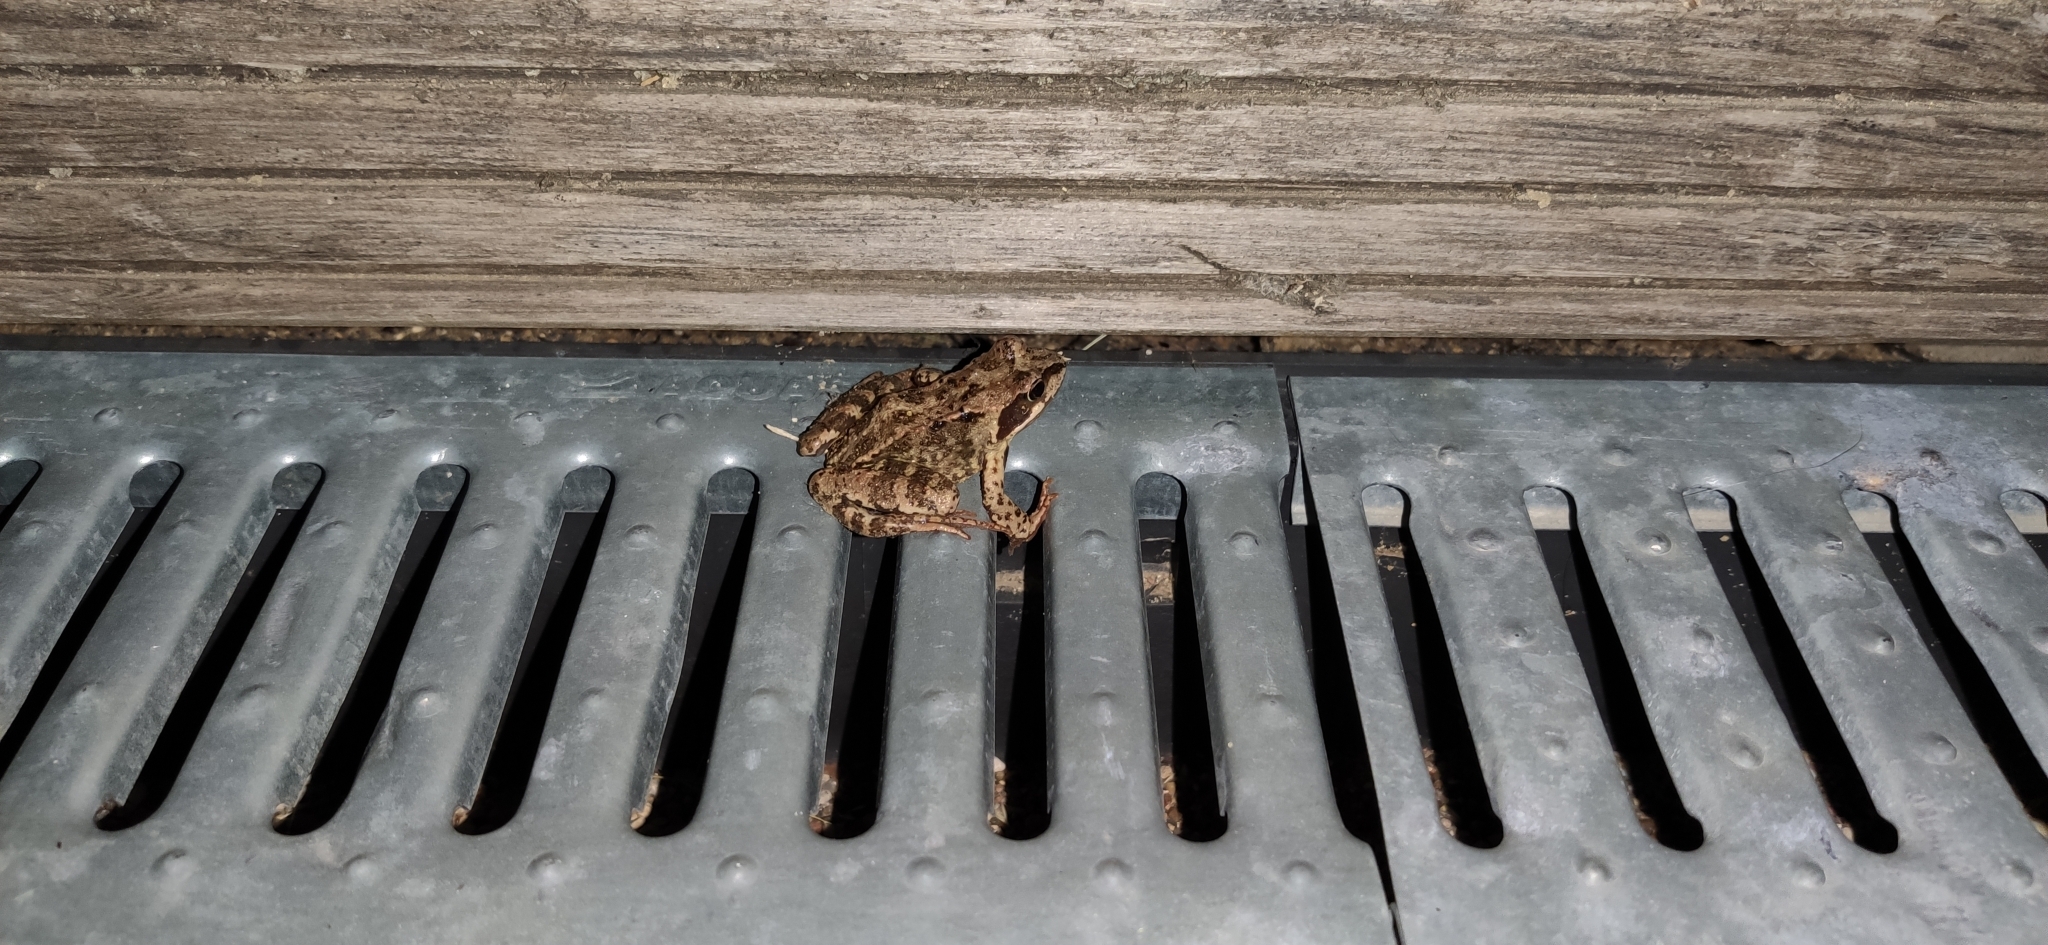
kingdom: Animalia
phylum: Chordata
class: Amphibia
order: Anura
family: Ranidae
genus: Rana
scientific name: Rana temporaria
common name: Common frog
